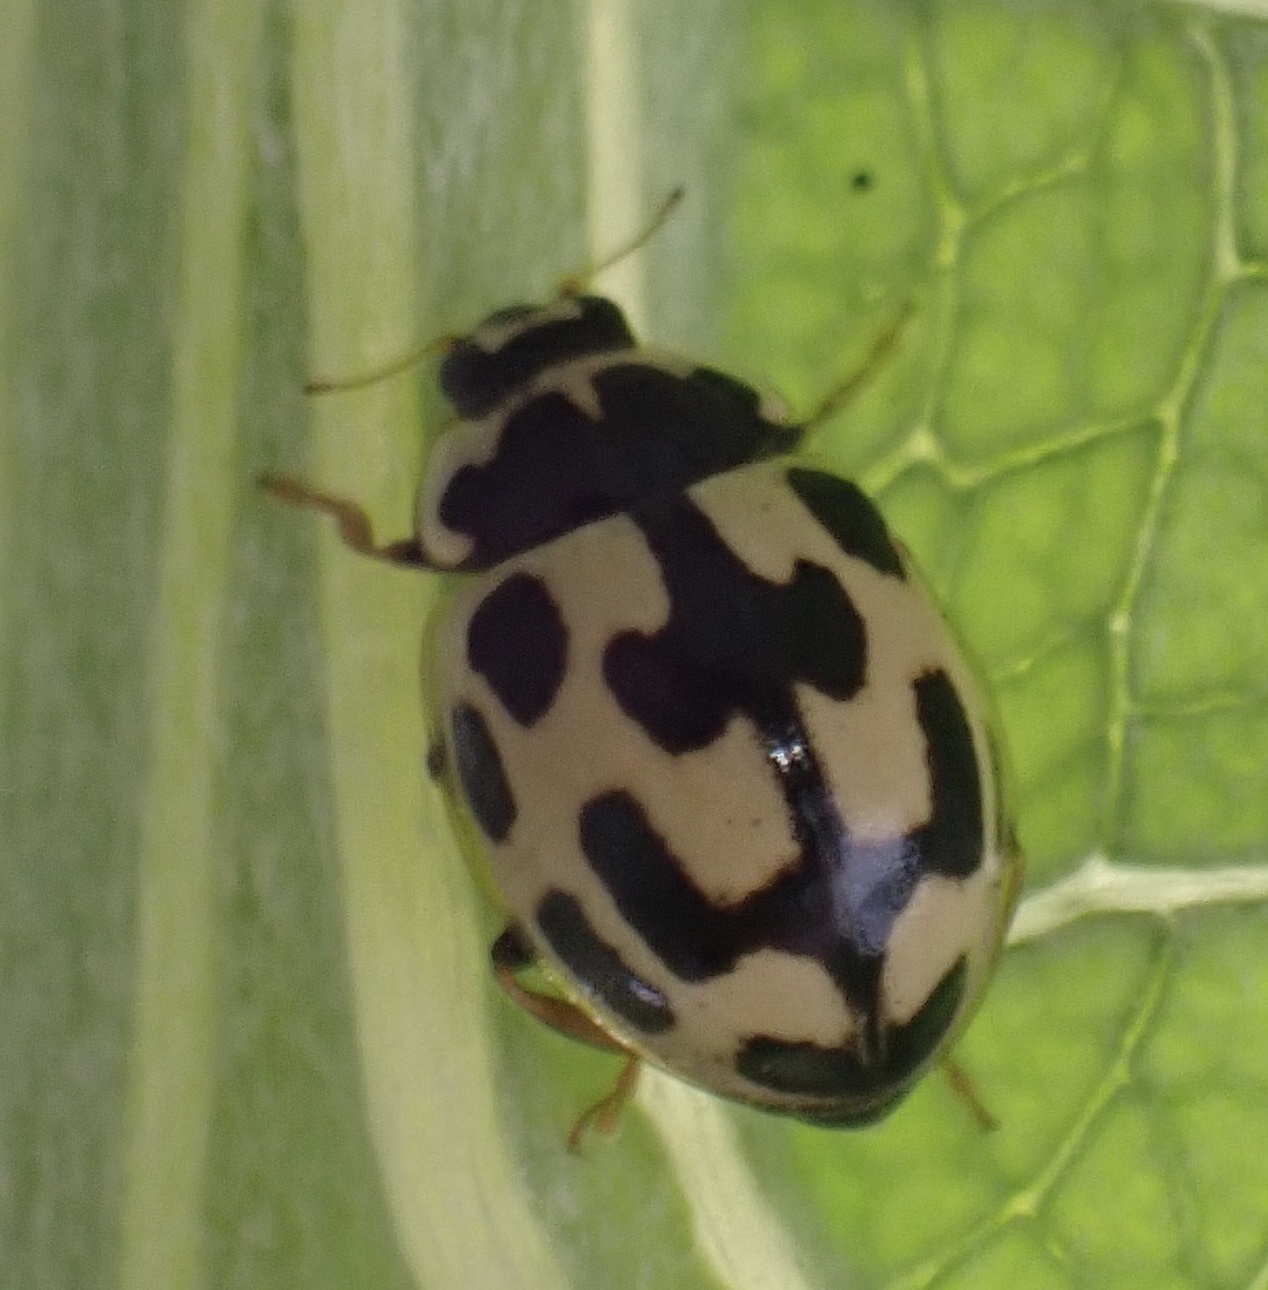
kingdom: Animalia
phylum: Arthropoda
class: Insecta
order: Coleoptera
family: Coccinellidae
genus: Propylaea
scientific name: Propylaea quatuordecimpunctata
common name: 14-spotted ladybird beetle
